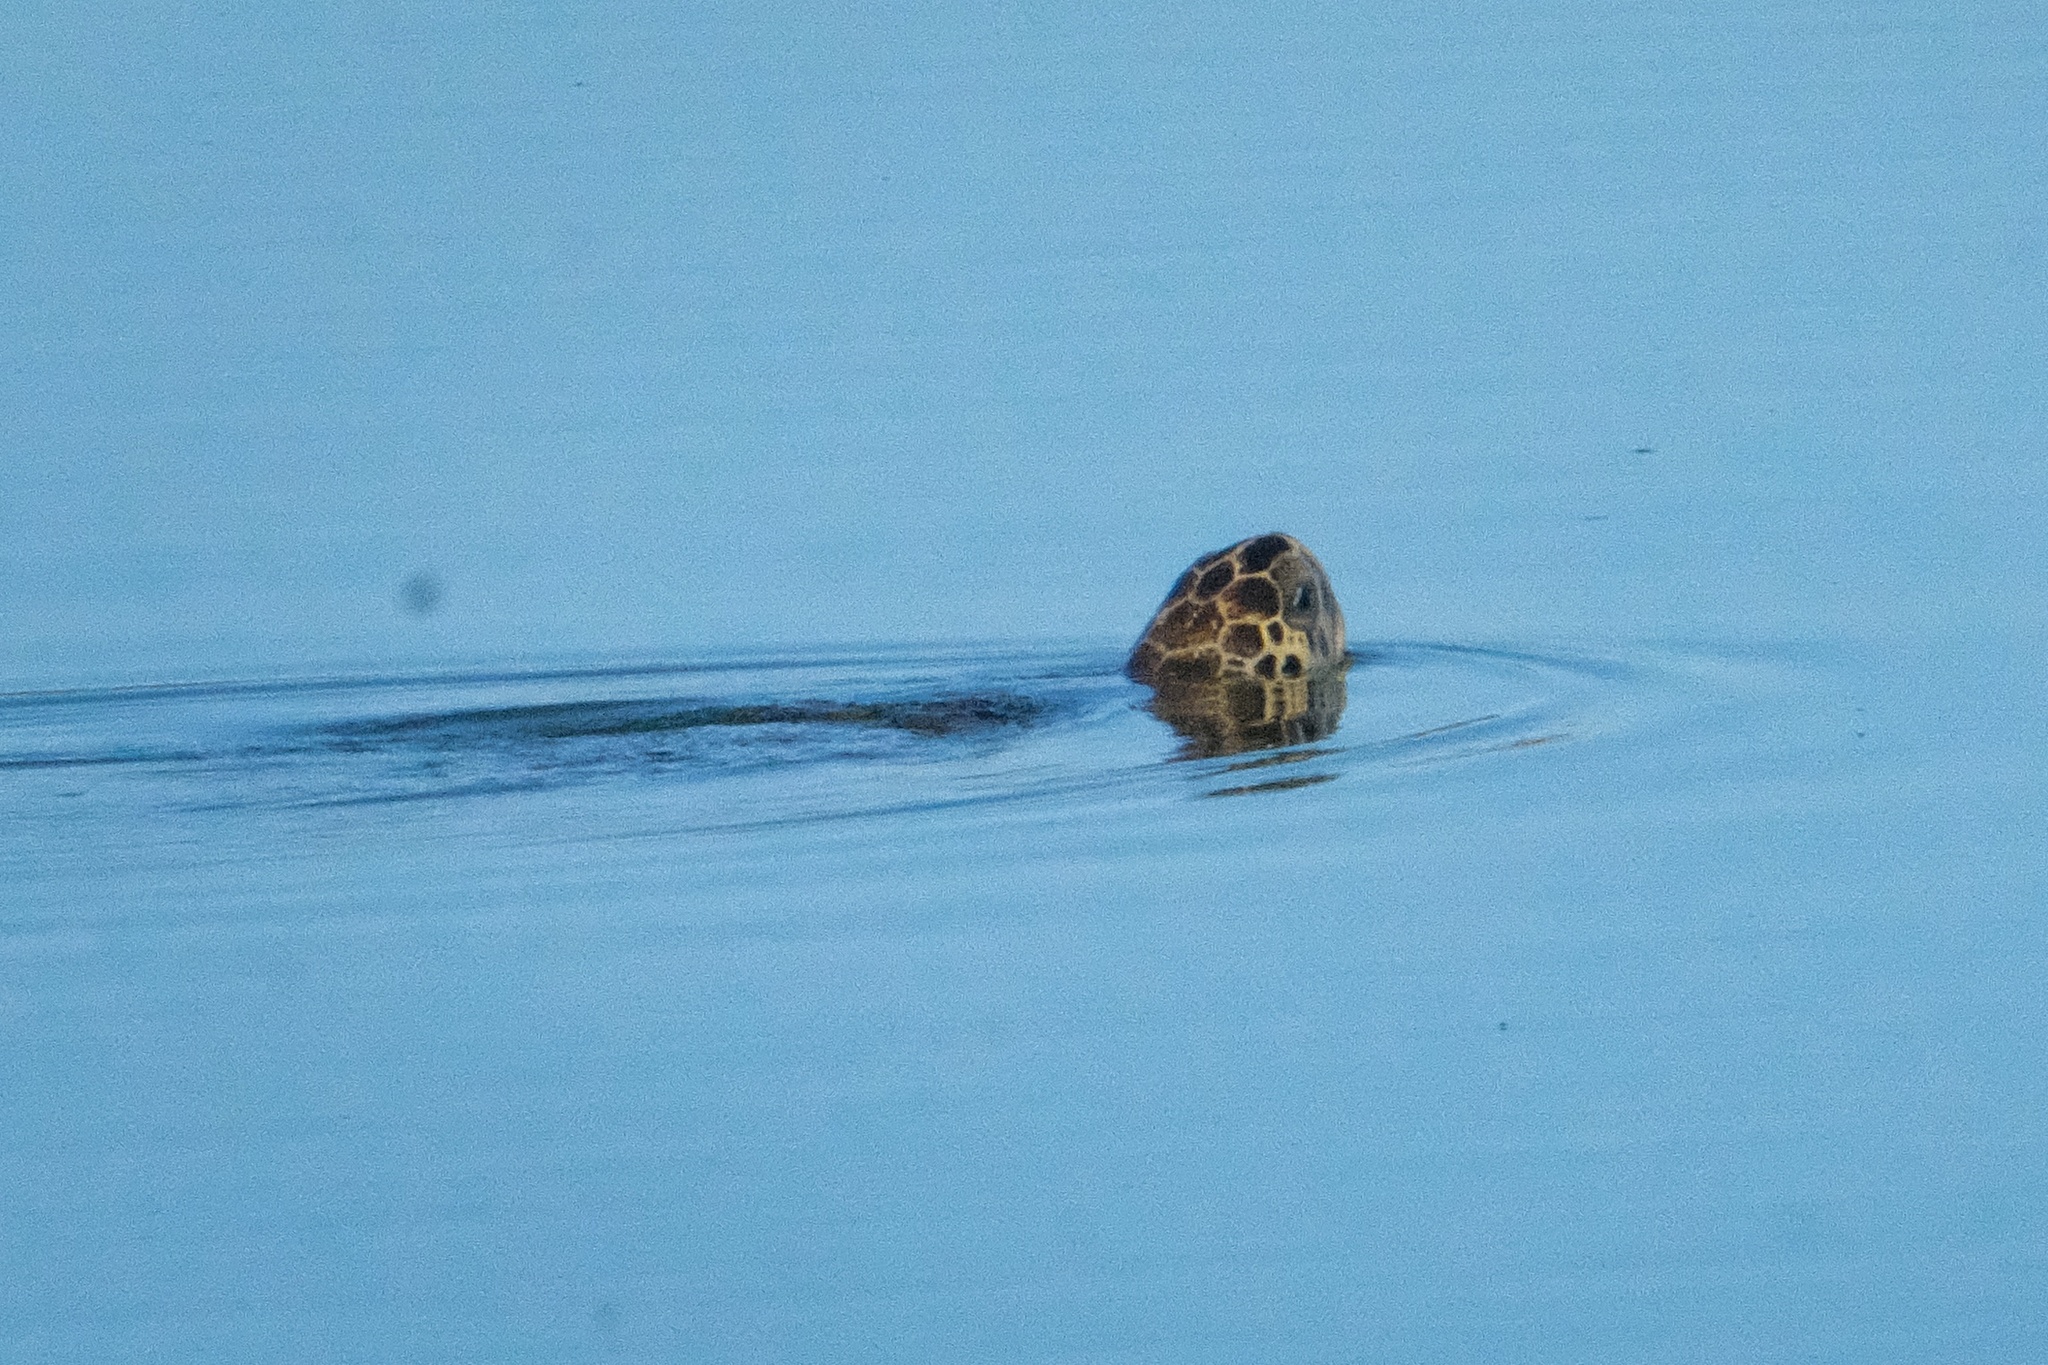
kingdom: Animalia
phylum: Chordata
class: Testudines
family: Cheloniidae
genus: Chelonia
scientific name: Chelonia mydas
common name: Green turtle
